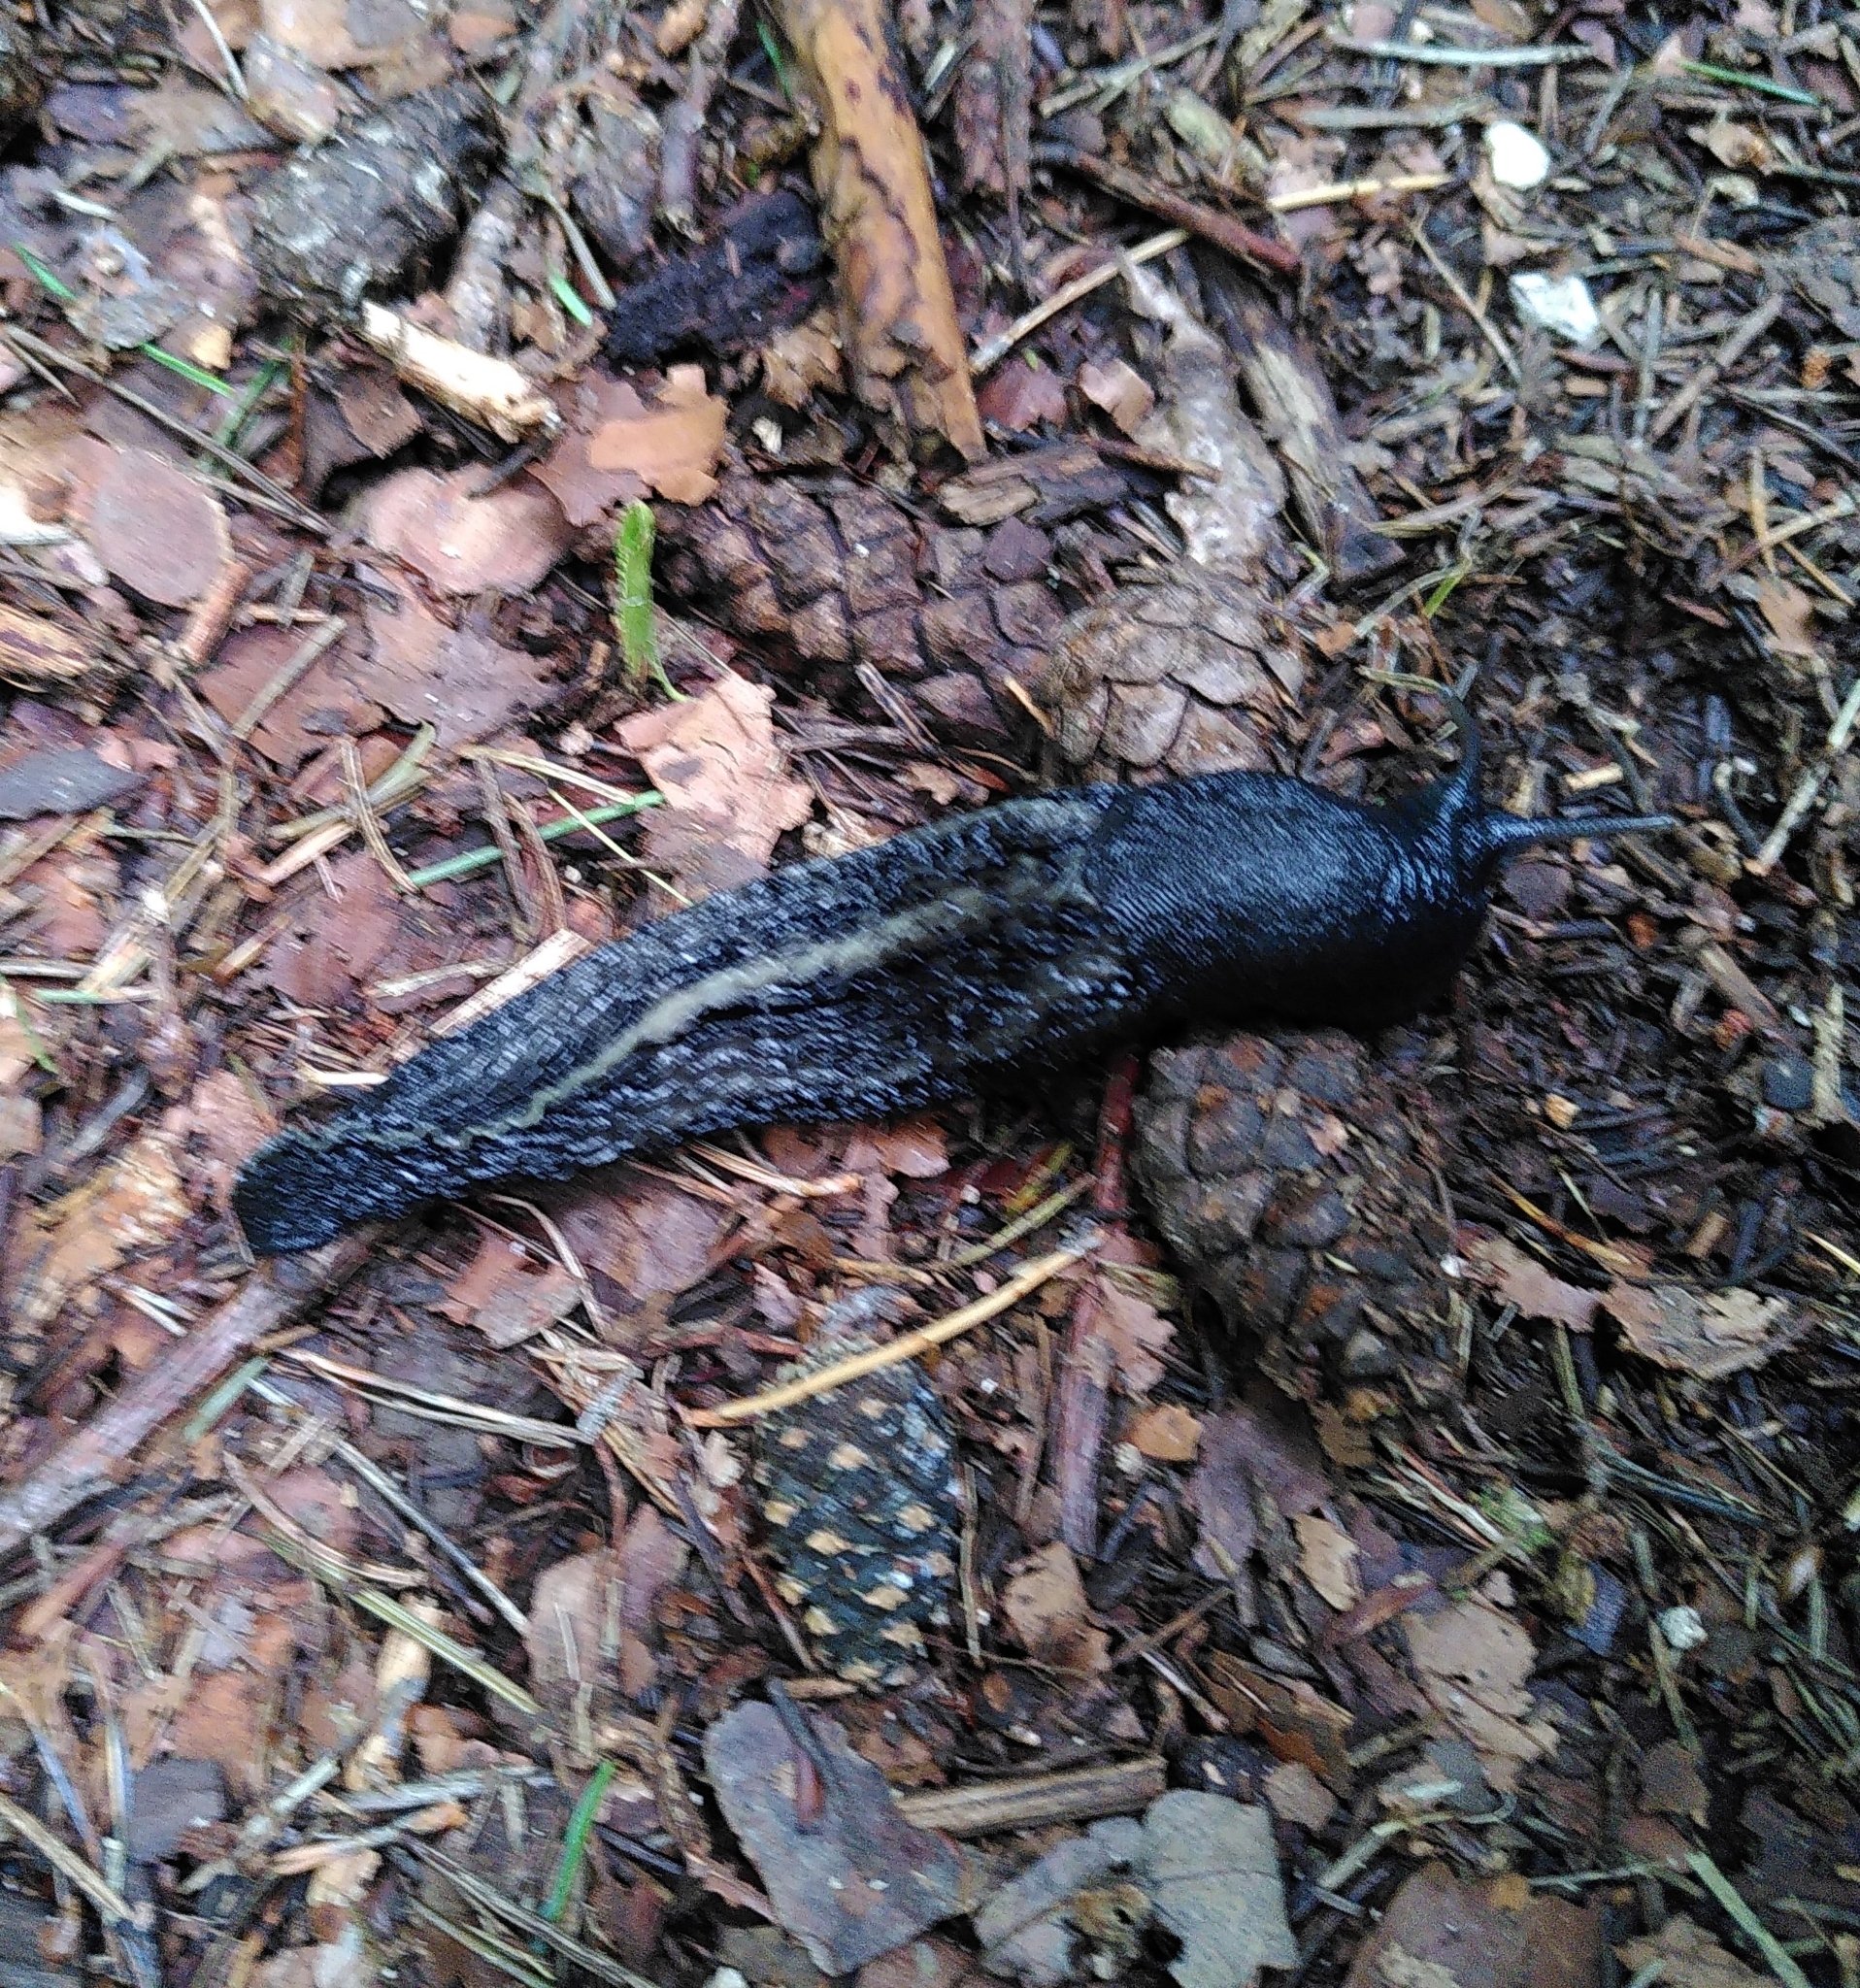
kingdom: Animalia
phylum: Mollusca
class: Gastropoda
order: Stylommatophora
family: Limacidae
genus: Limax
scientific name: Limax cinereoniger
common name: Ash-black slug
